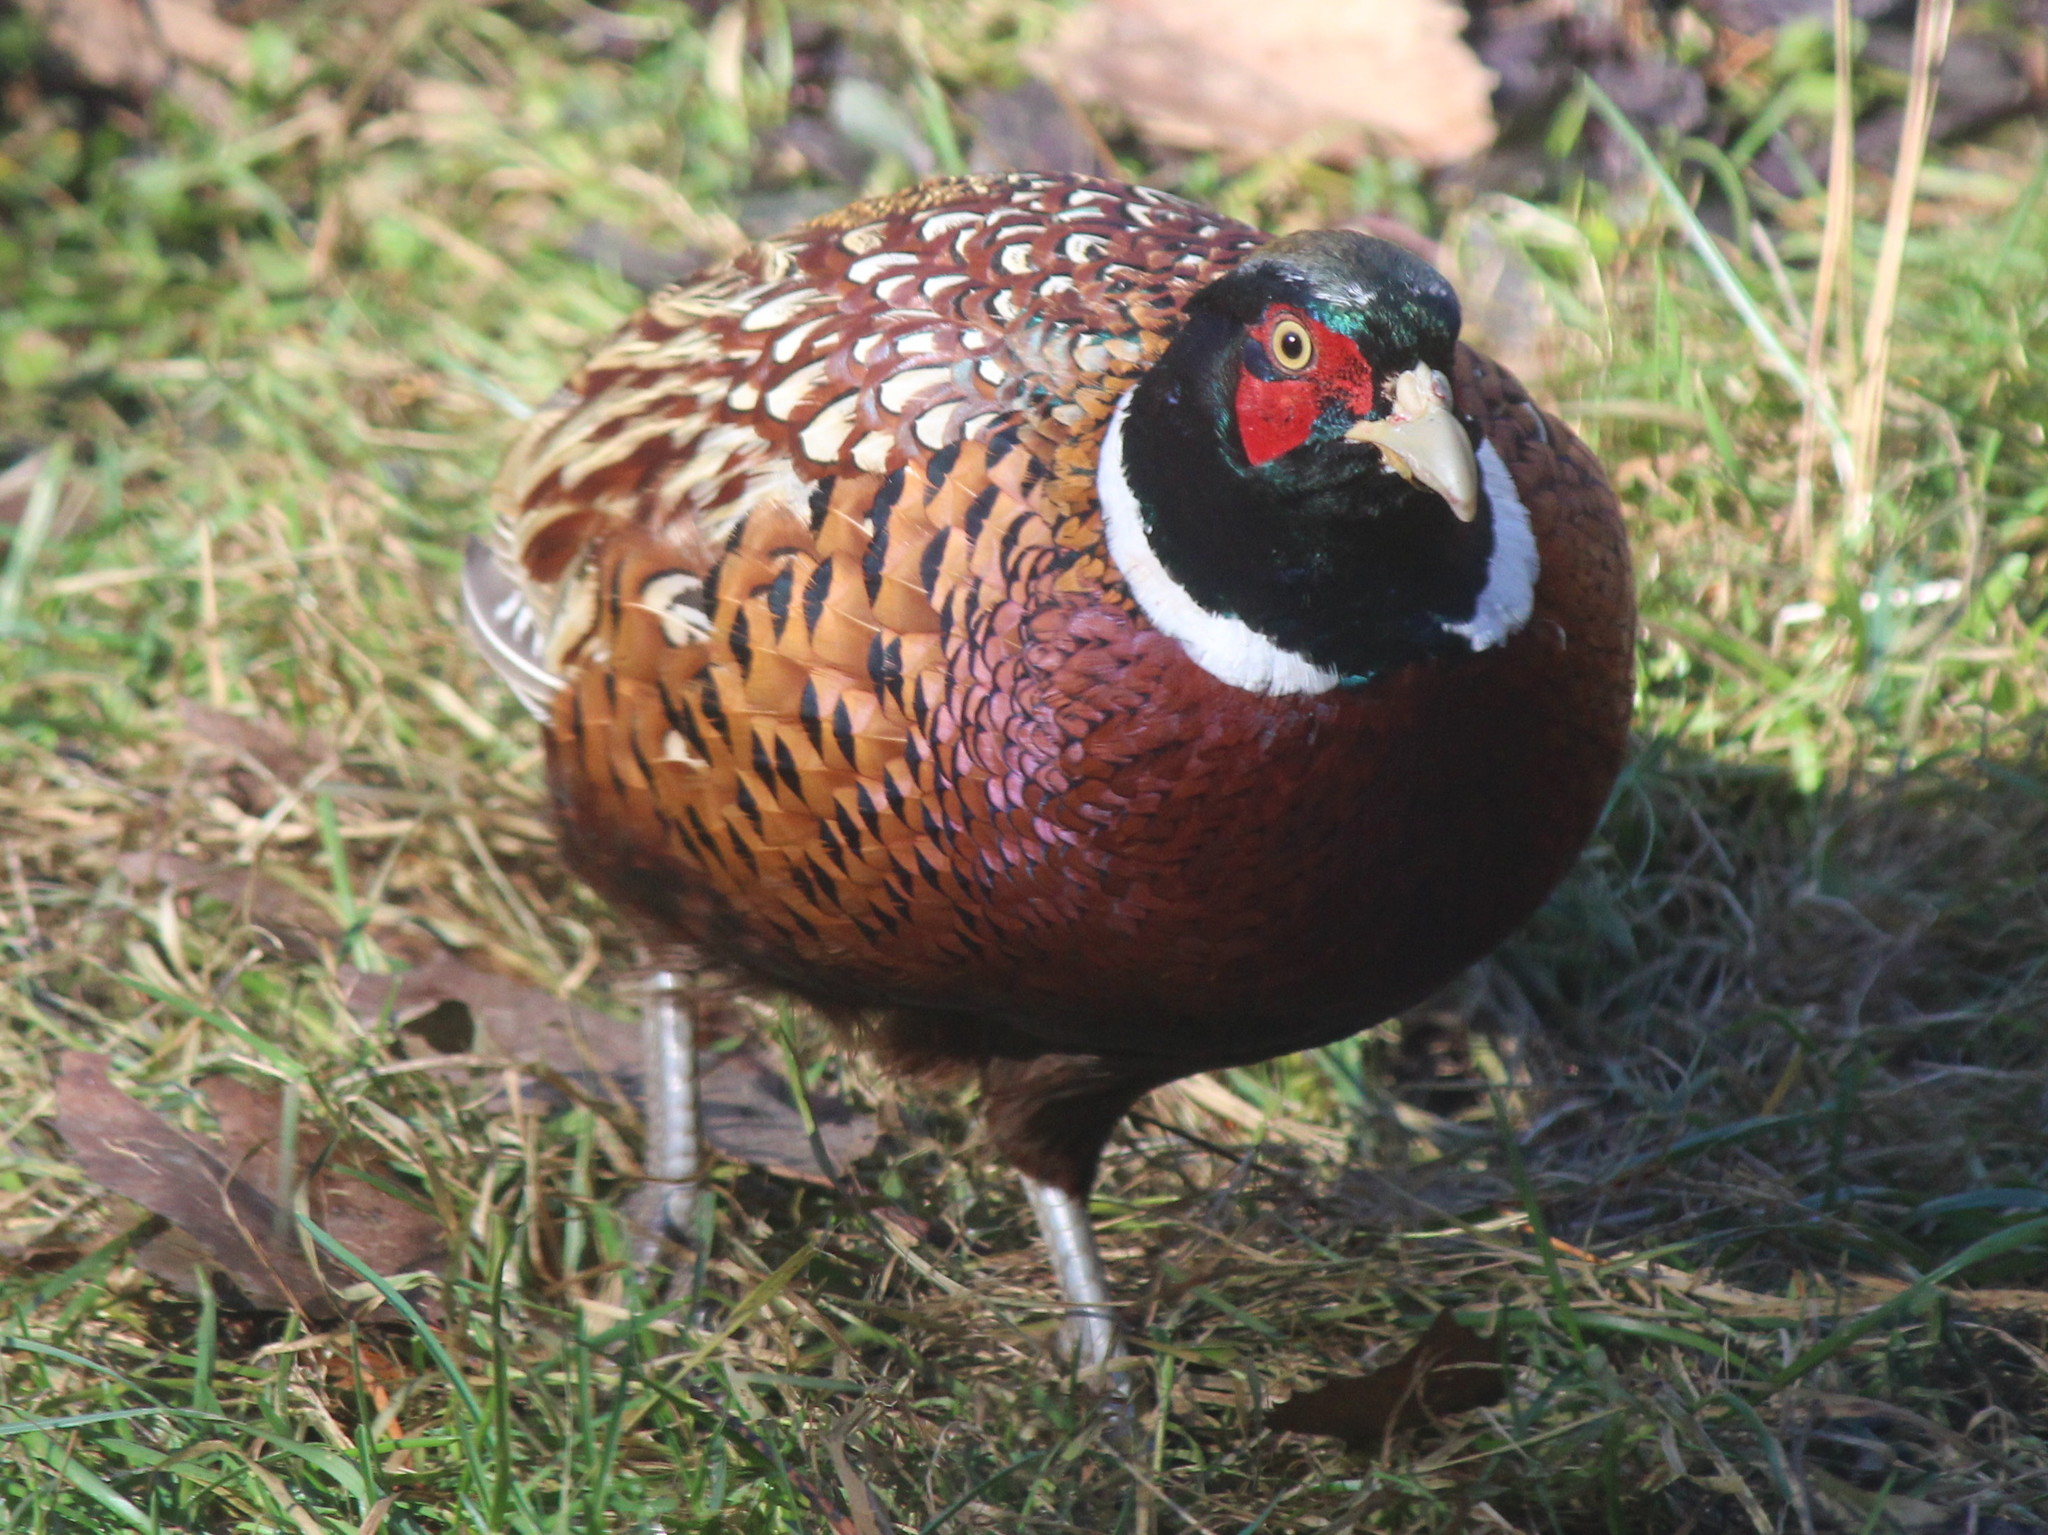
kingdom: Animalia
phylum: Chordata
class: Aves
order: Galliformes
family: Phasianidae
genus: Phasianus
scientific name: Phasianus colchicus
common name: Common pheasant
